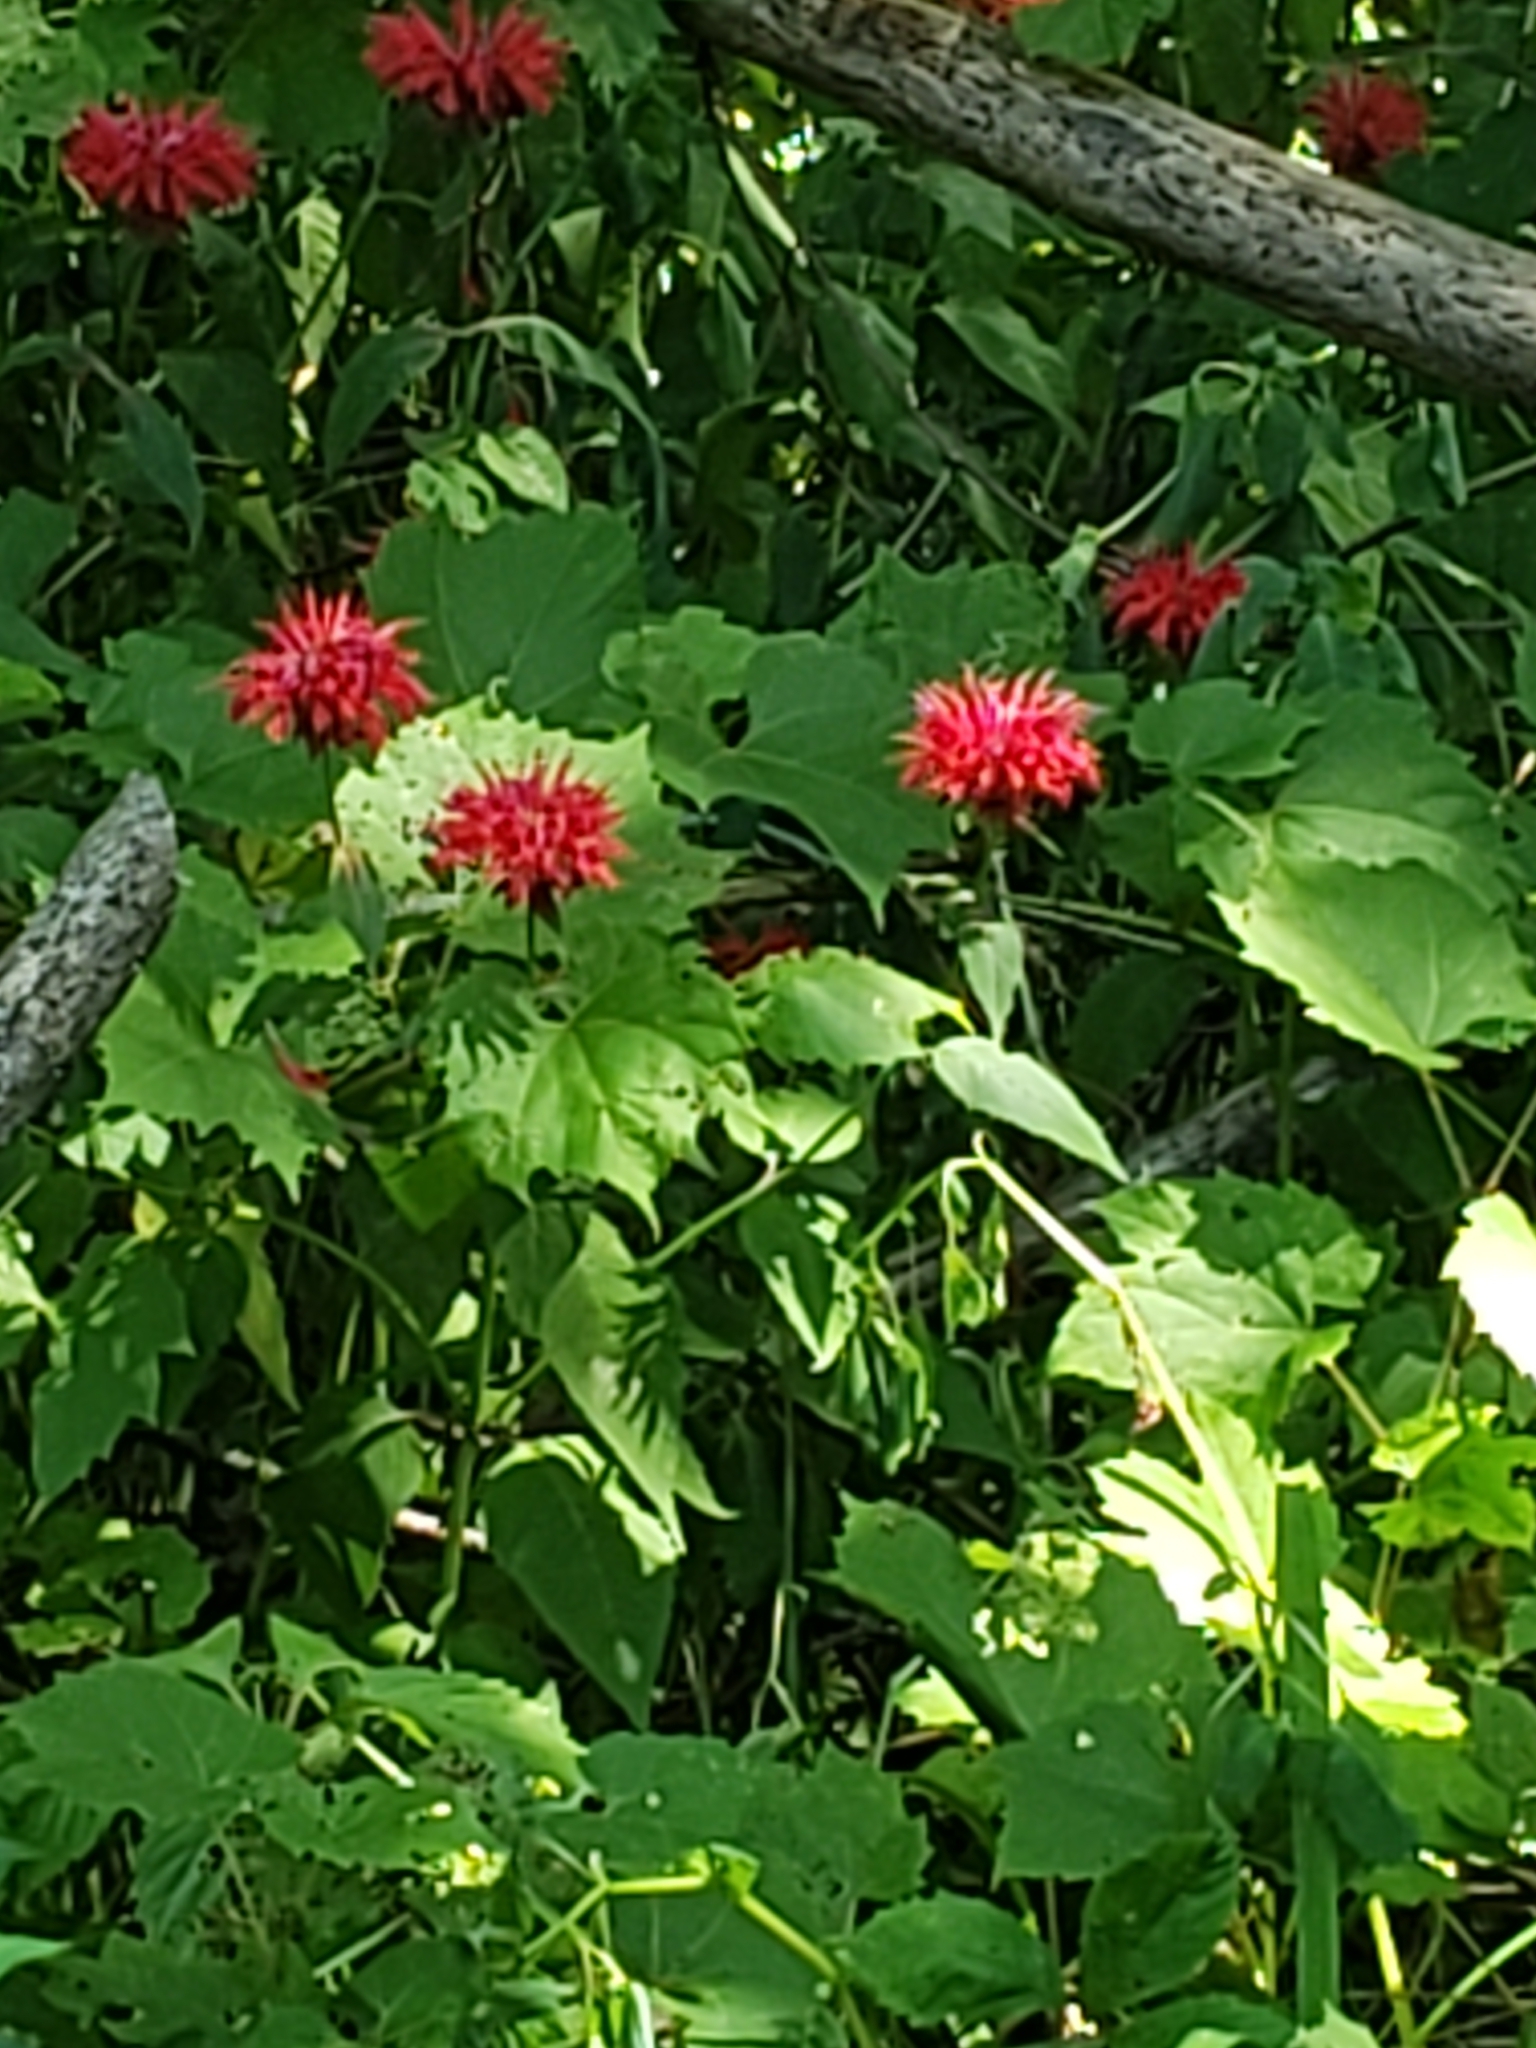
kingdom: Plantae
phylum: Tracheophyta
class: Magnoliopsida
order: Lamiales
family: Lamiaceae
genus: Monarda
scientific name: Monarda didyma
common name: Beebalm
